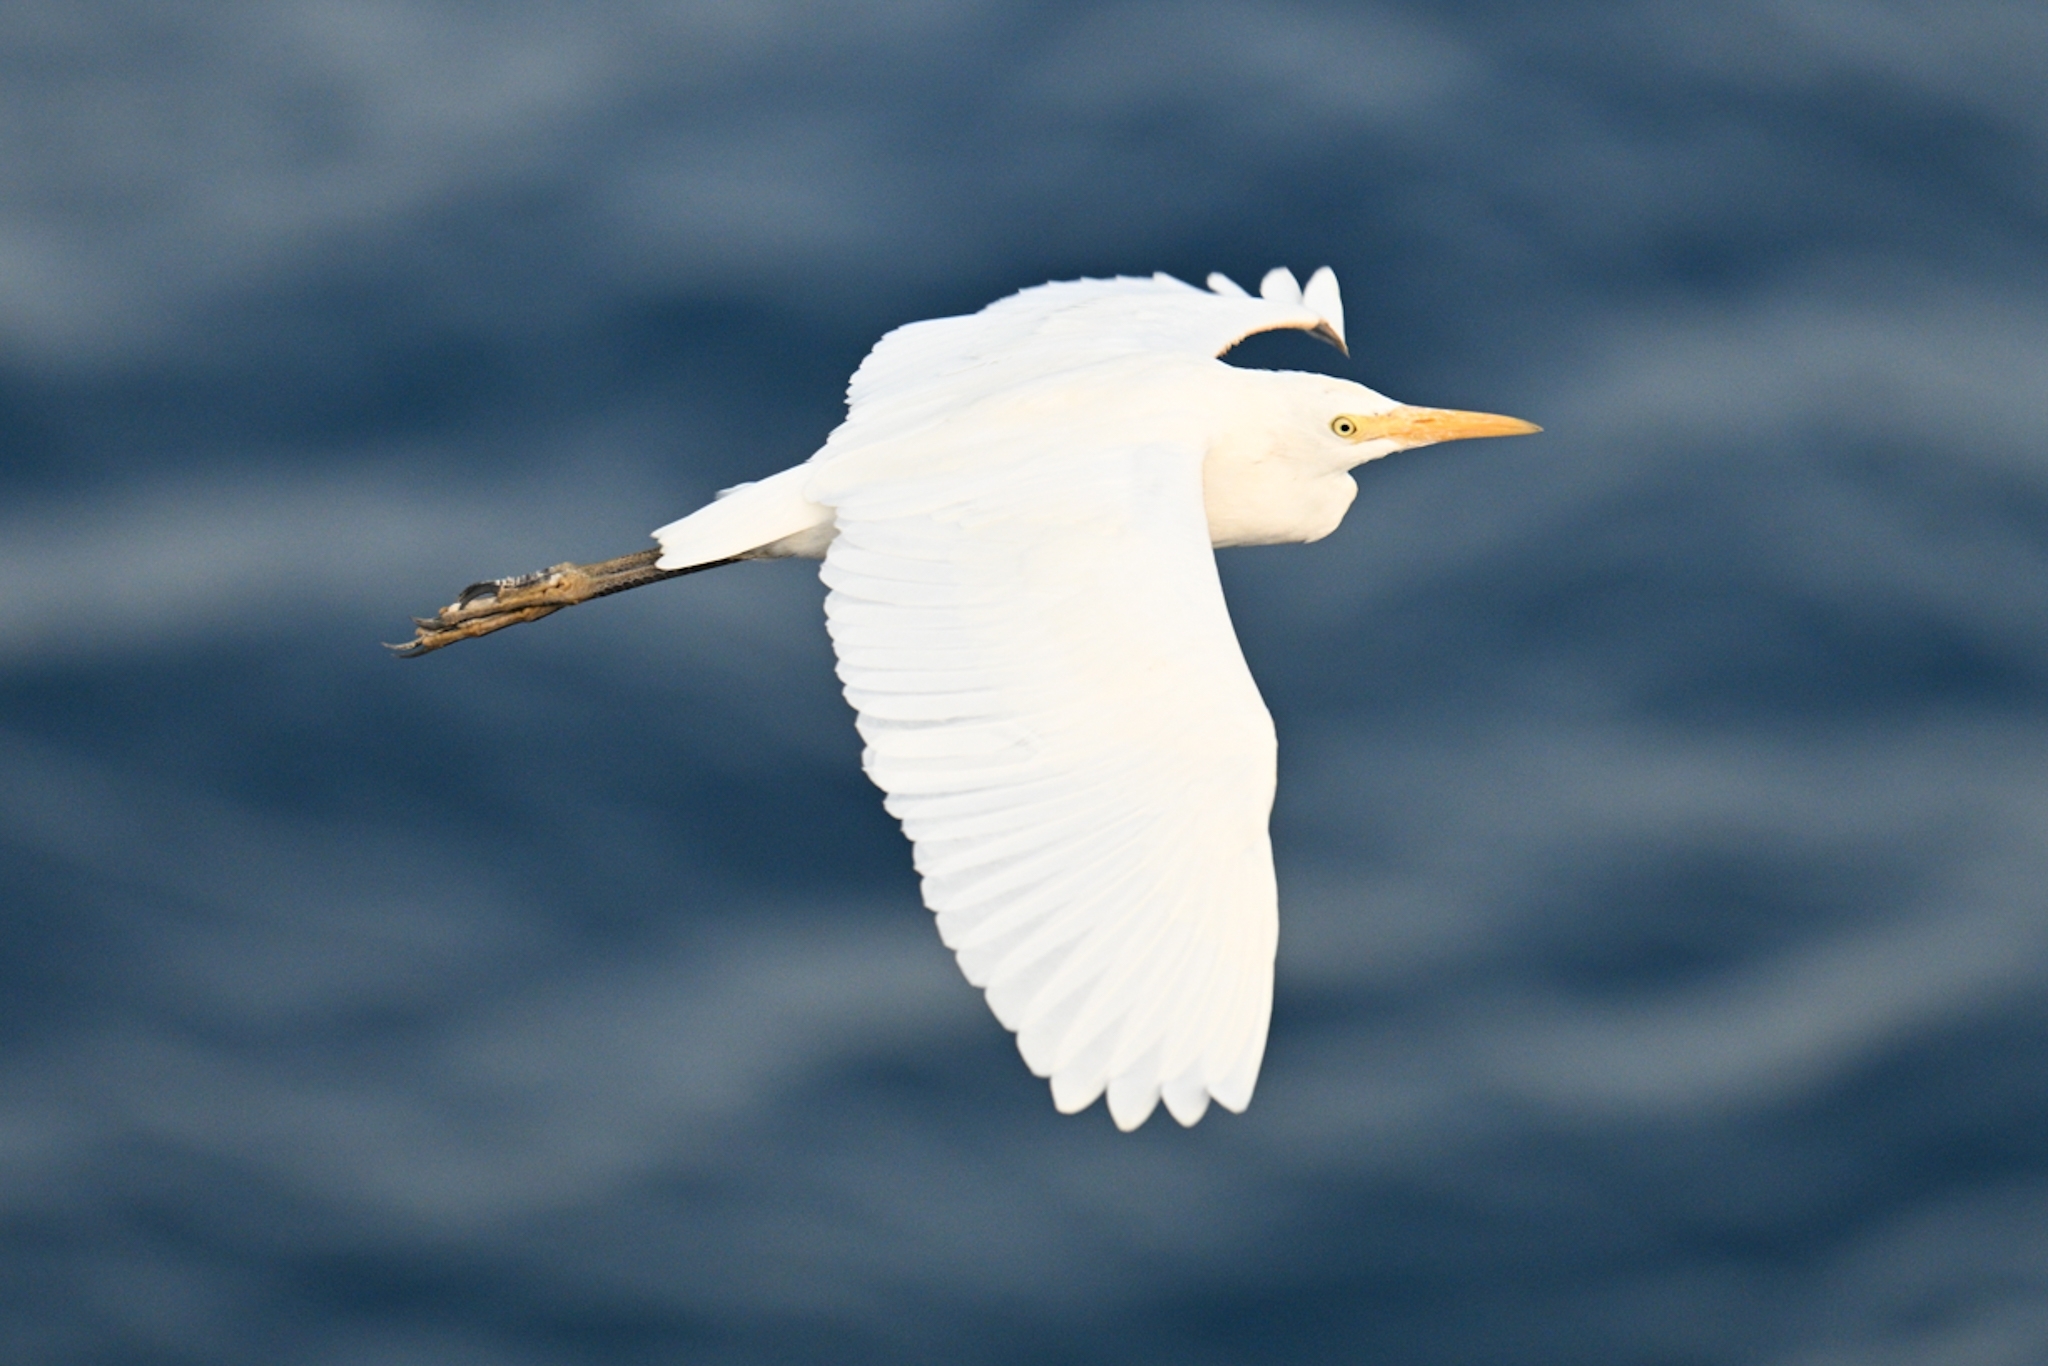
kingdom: Animalia
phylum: Chordata
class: Aves
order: Pelecaniformes
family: Ardeidae
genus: Bubulcus
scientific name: Bubulcus ibis
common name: Cattle egret
